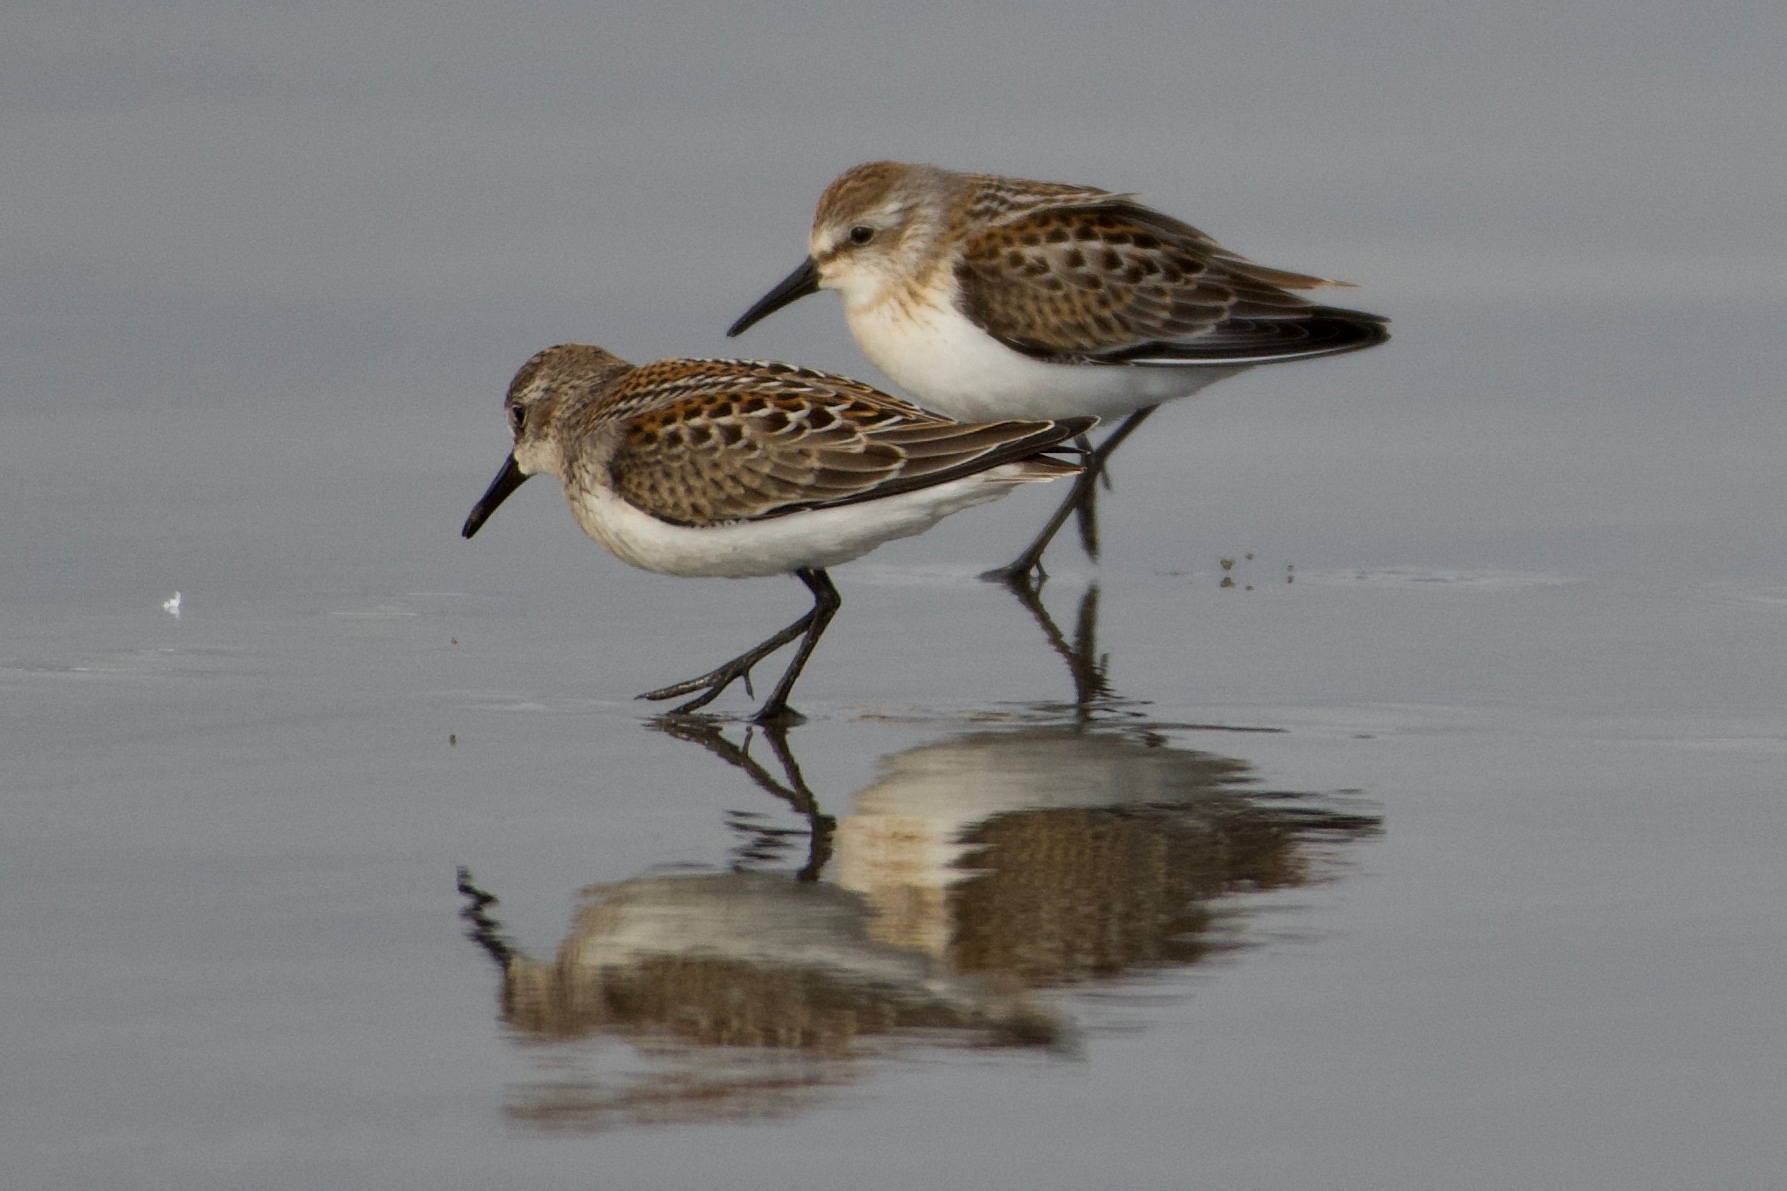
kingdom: Animalia
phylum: Chordata
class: Aves
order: Charadriiformes
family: Scolopacidae
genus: Calidris
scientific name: Calidris mauri
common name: Western sandpiper
